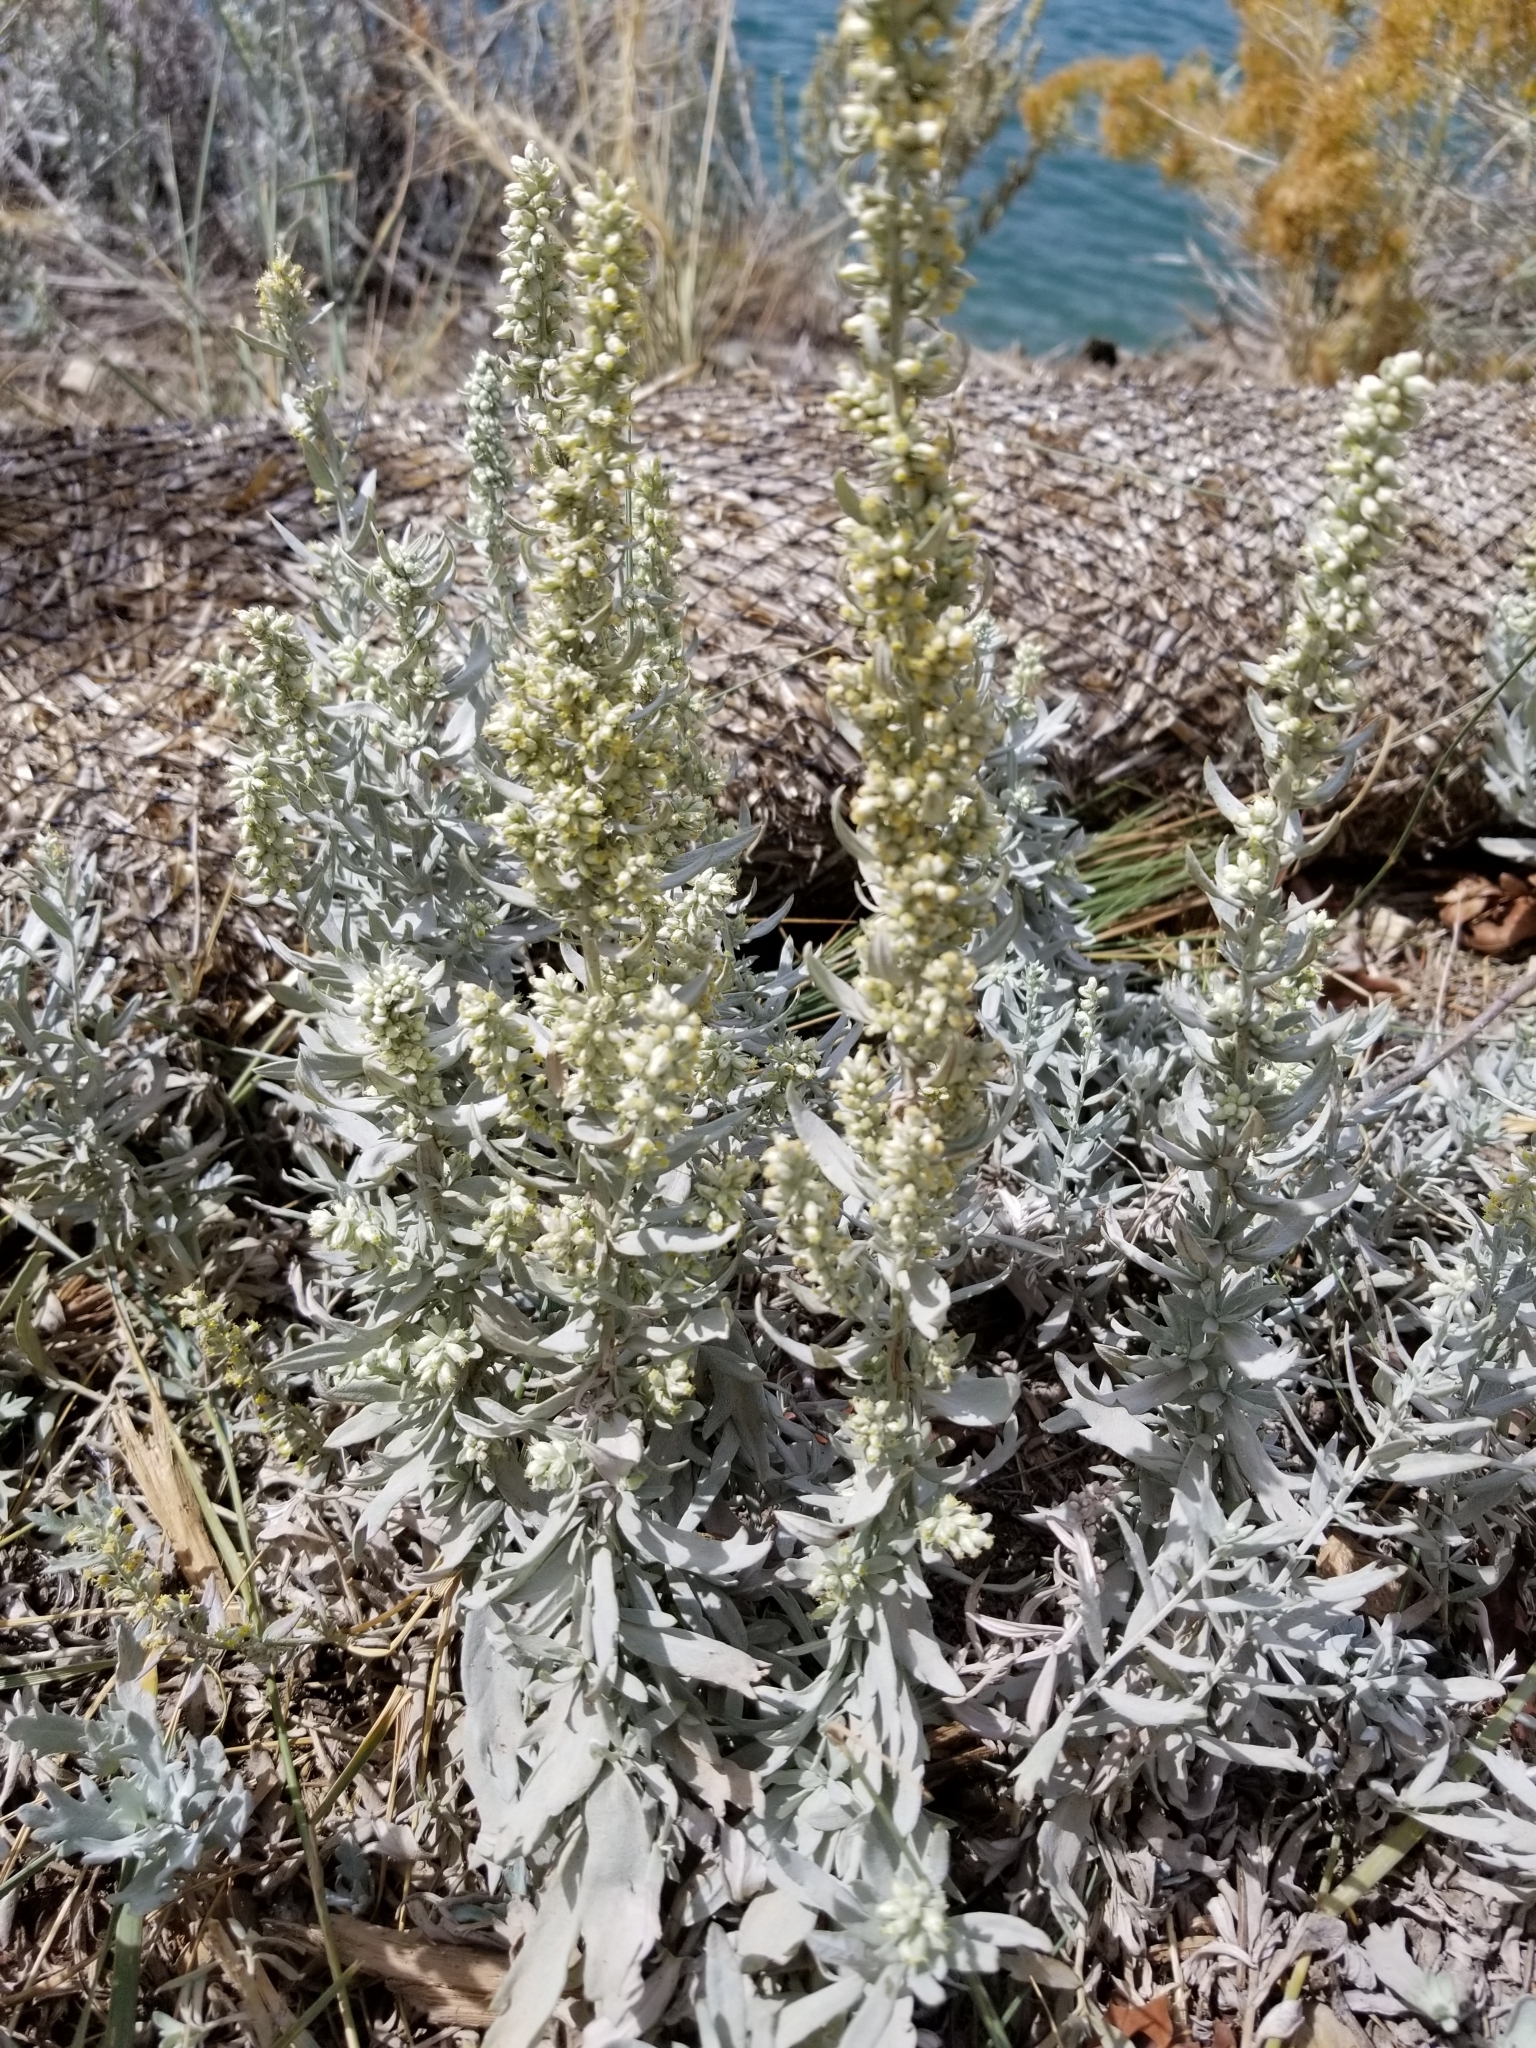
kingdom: Plantae
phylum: Tracheophyta
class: Magnoliopsida
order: Asterales
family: Asteraceae
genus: Artemisia
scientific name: Artemisia ludoviciana
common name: Western mugwort
